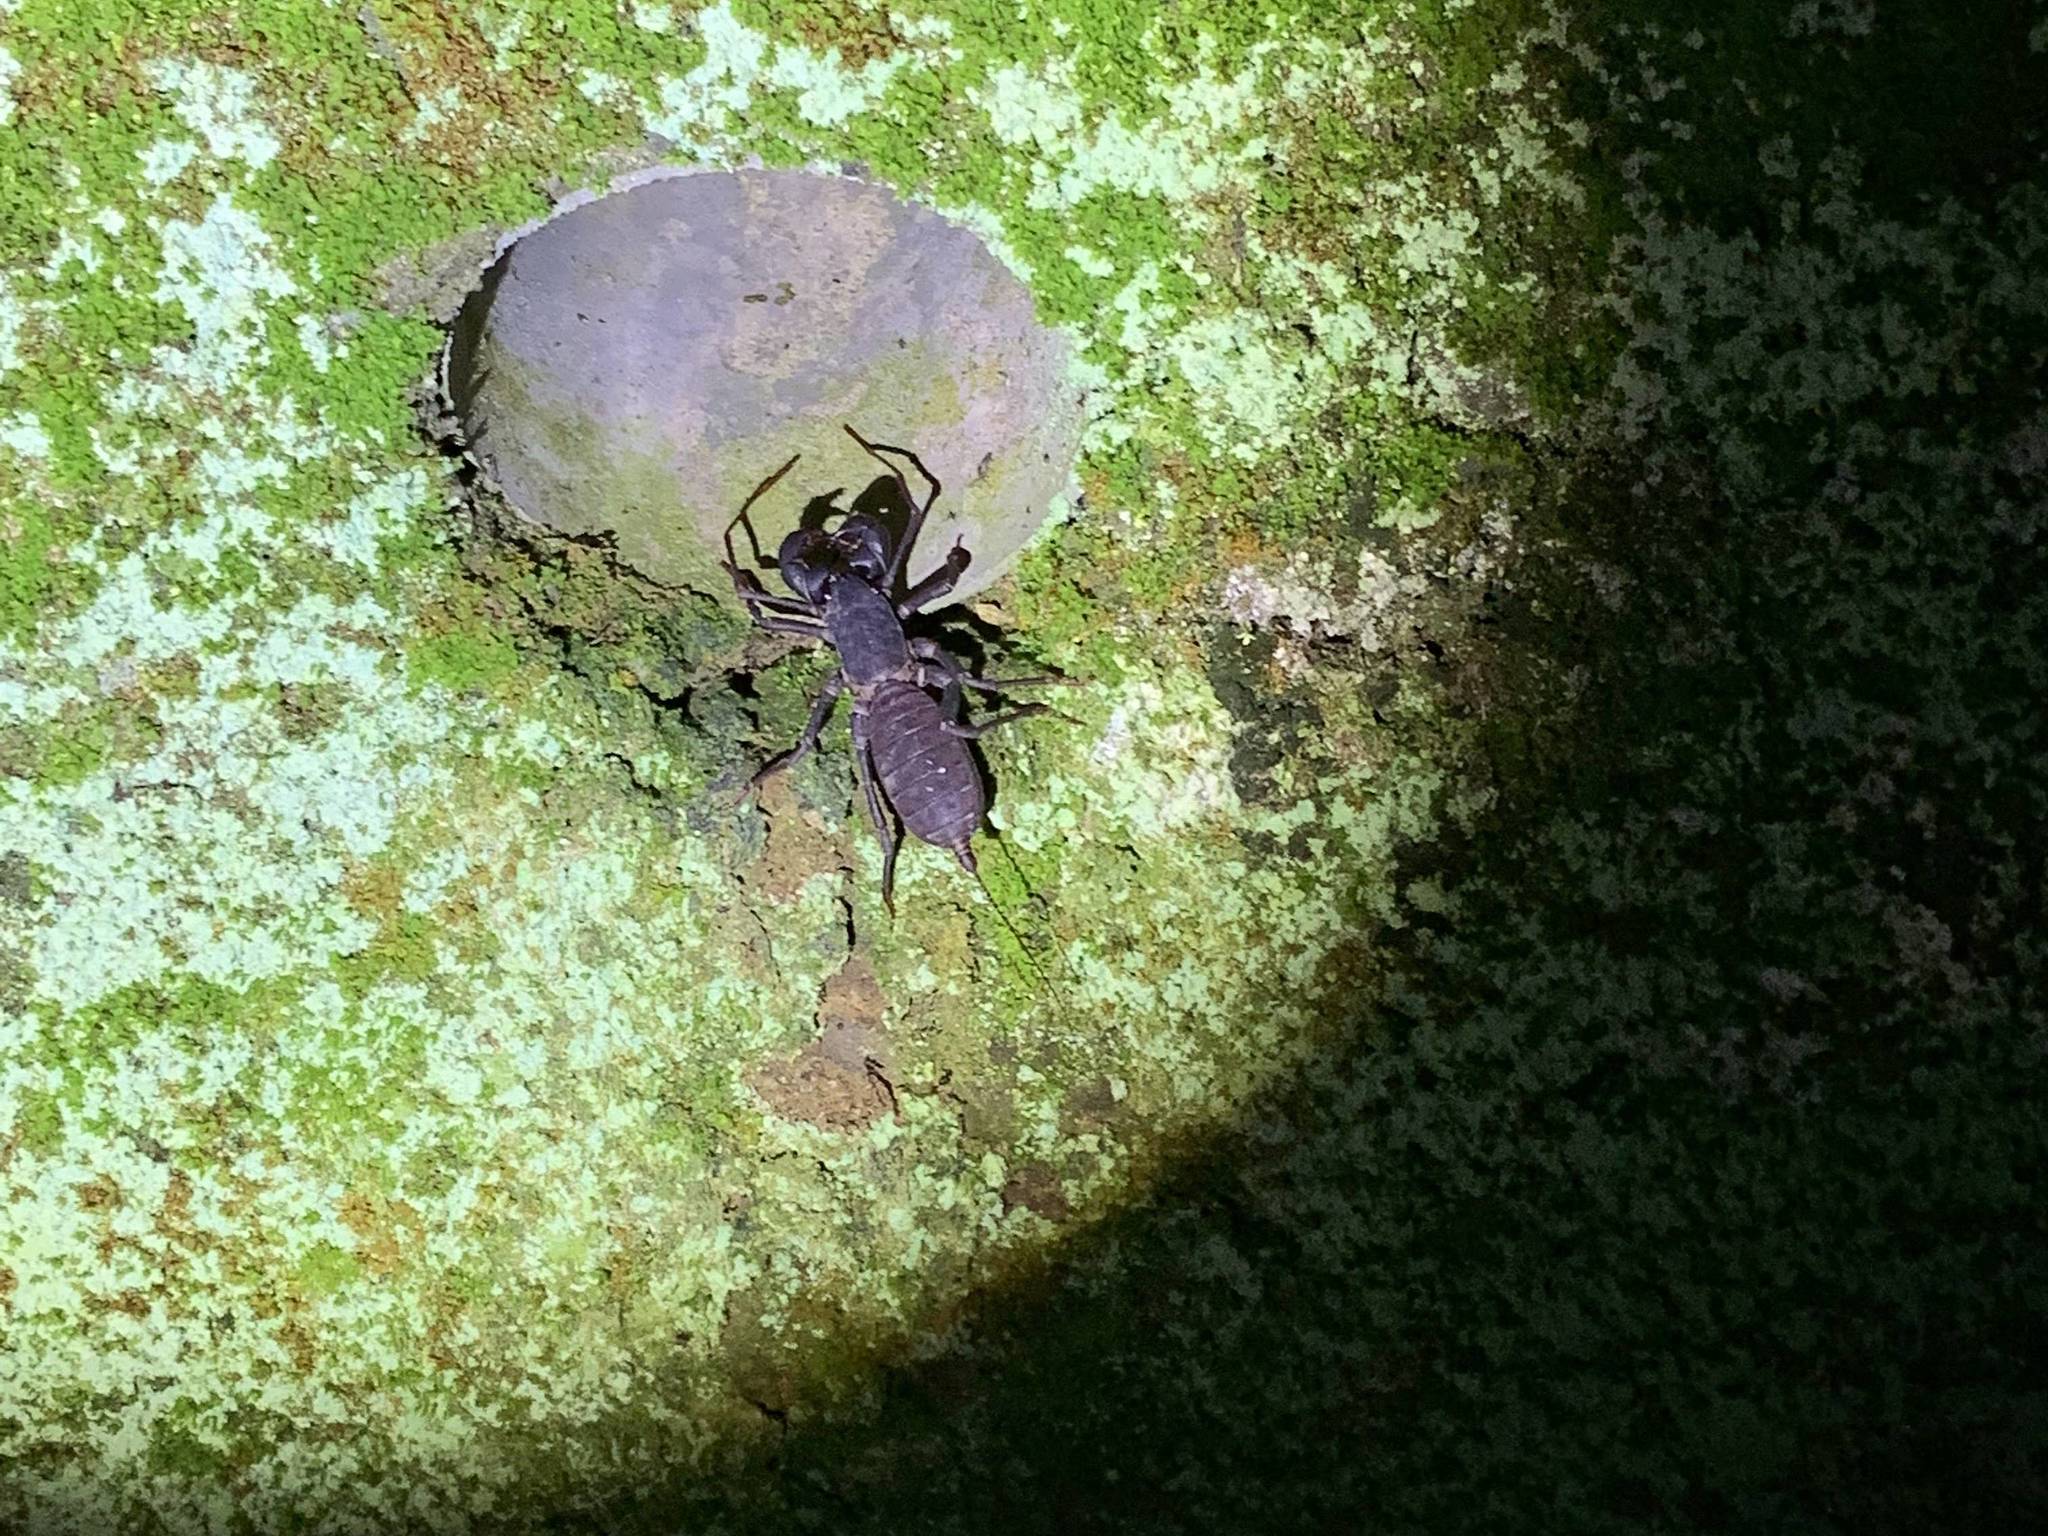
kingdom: Animalia
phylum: Arthropoda
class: Arachnida
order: Uropygi
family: Thelyphonidae
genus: Typopeltis
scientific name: Typopeltis crucifer
